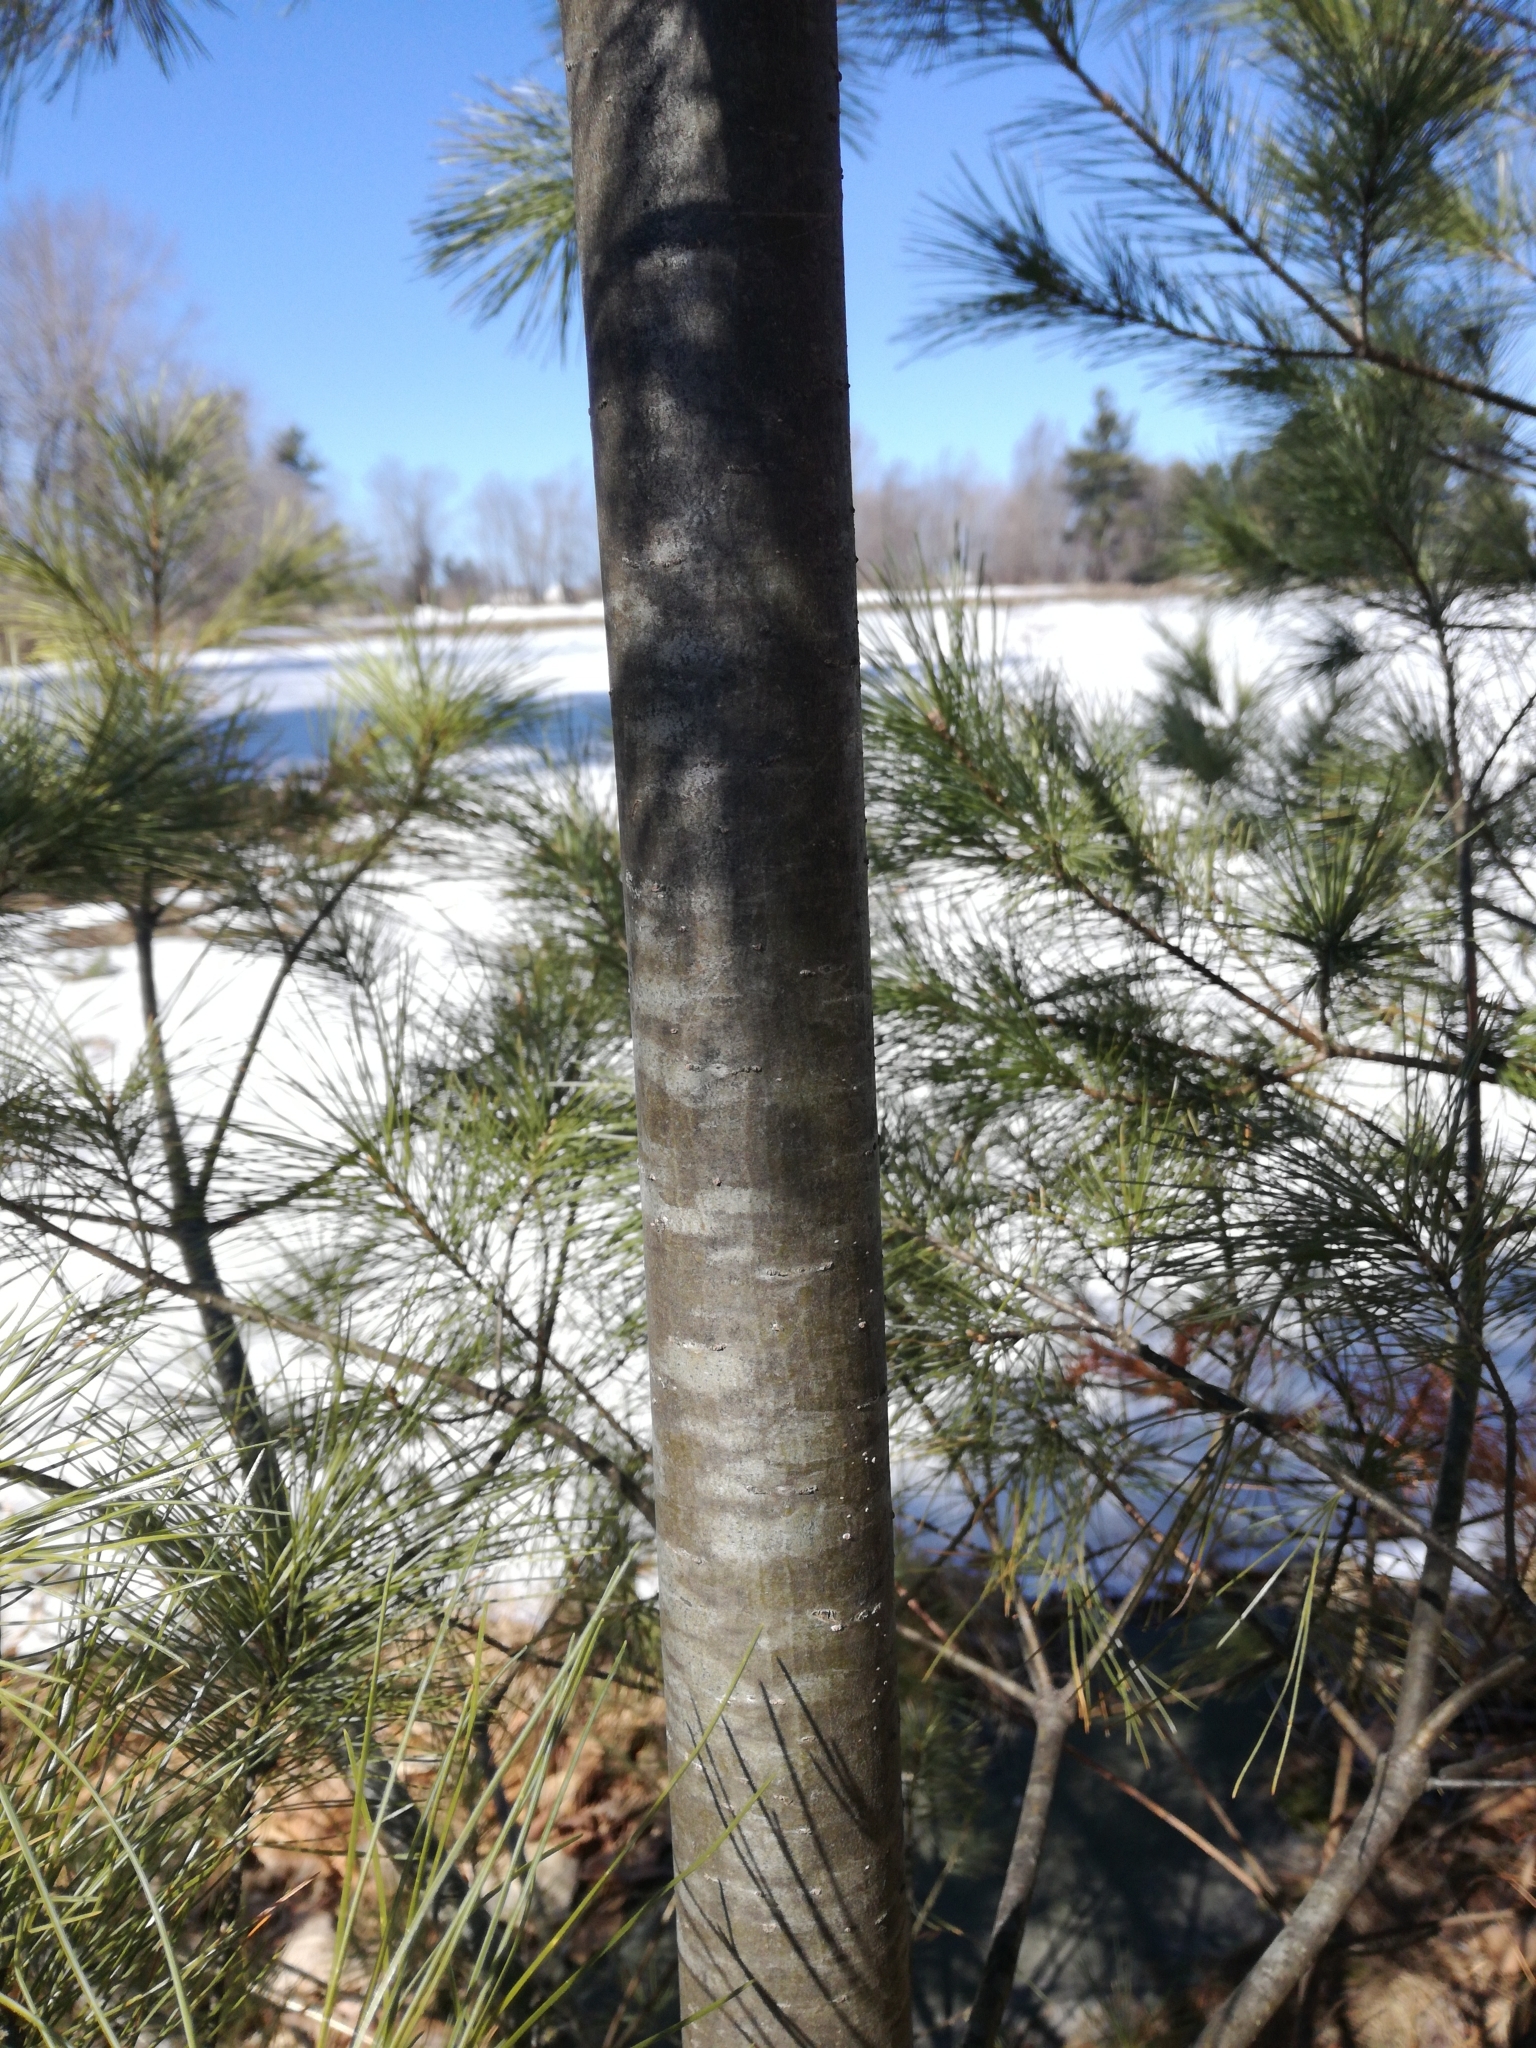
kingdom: Plantae
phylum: Tracheophyta
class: Pinopsida
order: Pinales
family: Pinaceae
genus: Pinus
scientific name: Pinus strobus
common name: Weymouth pine
